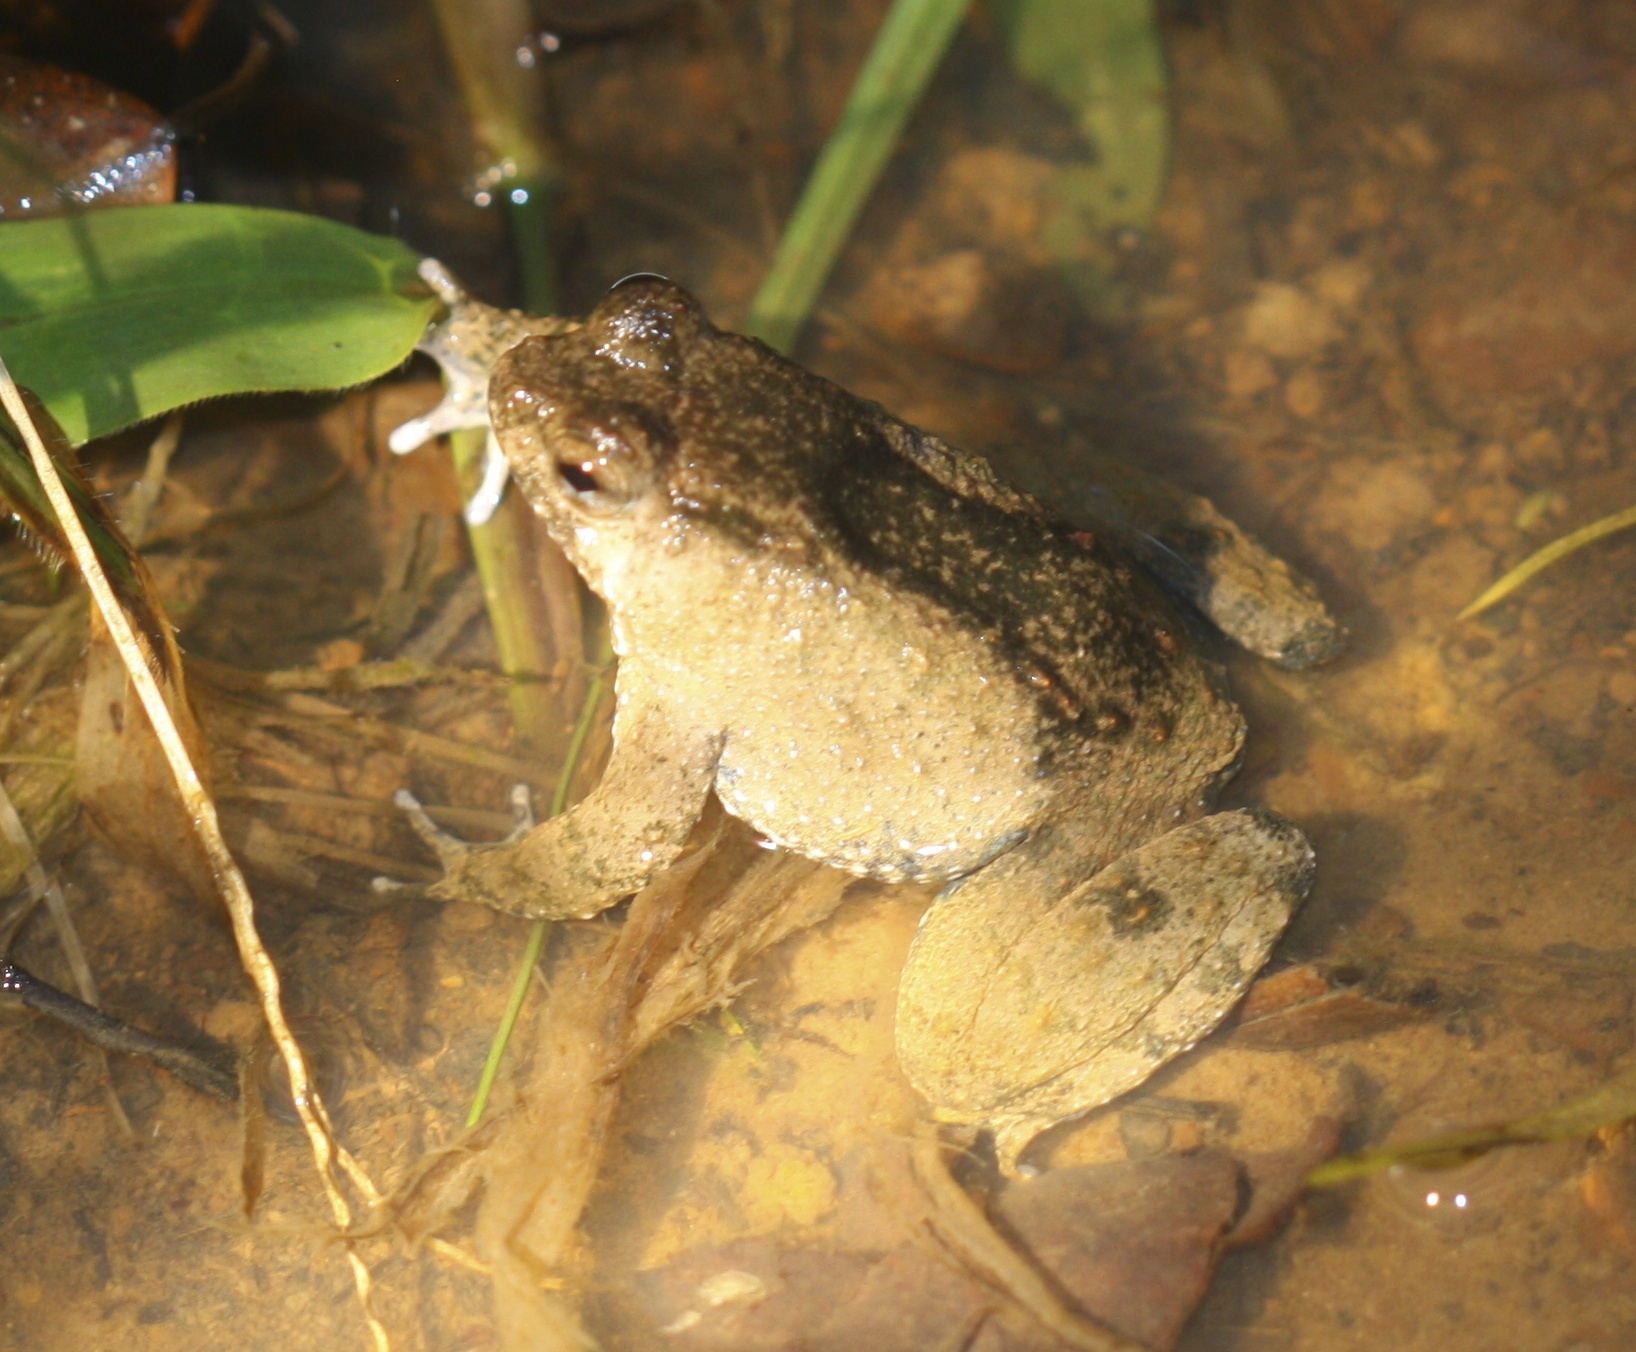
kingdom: Animalia
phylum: Chordata
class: Amphibia
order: Anura
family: Dicroglossidae
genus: Occidozyga
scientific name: Occidozyga baluensis
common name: Balu oriental frog
